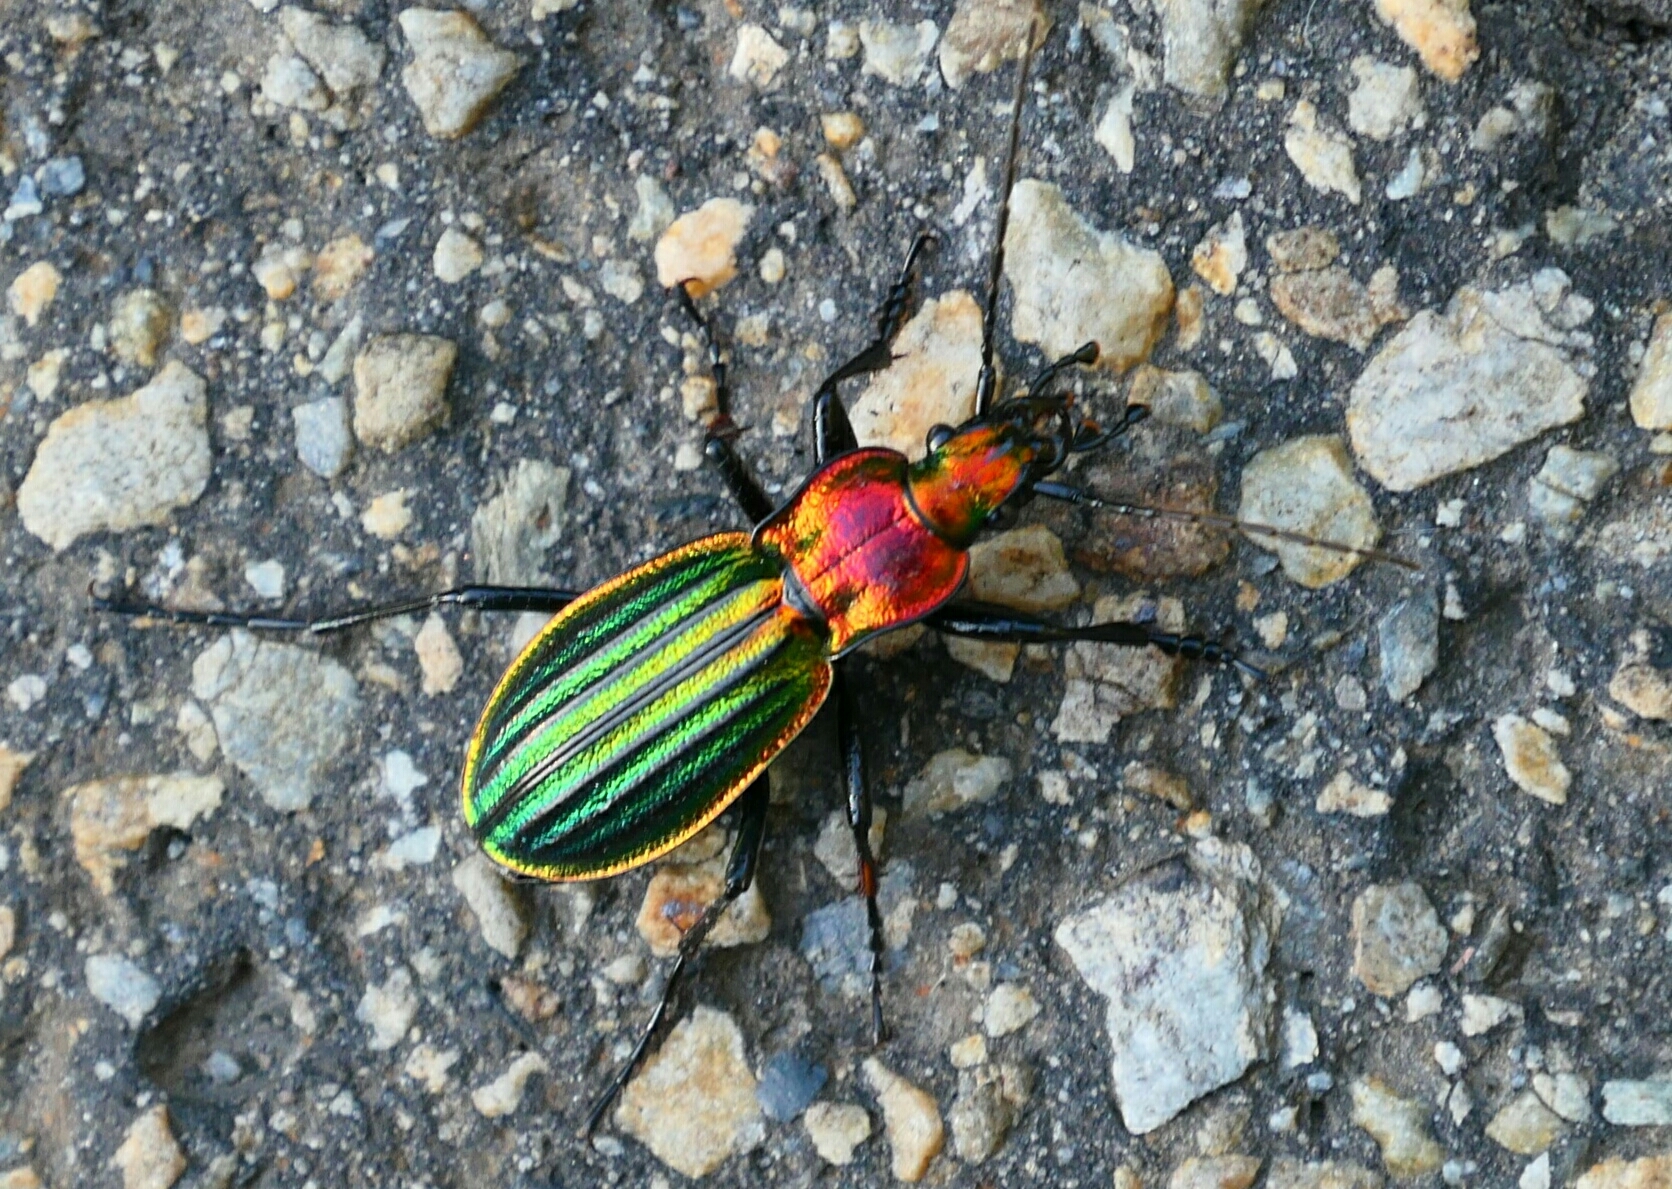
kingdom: Animalia
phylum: Arthropoda
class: Insecta
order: Coleoptera
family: Carabidae
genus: Carabus
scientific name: Carabus strasseri
